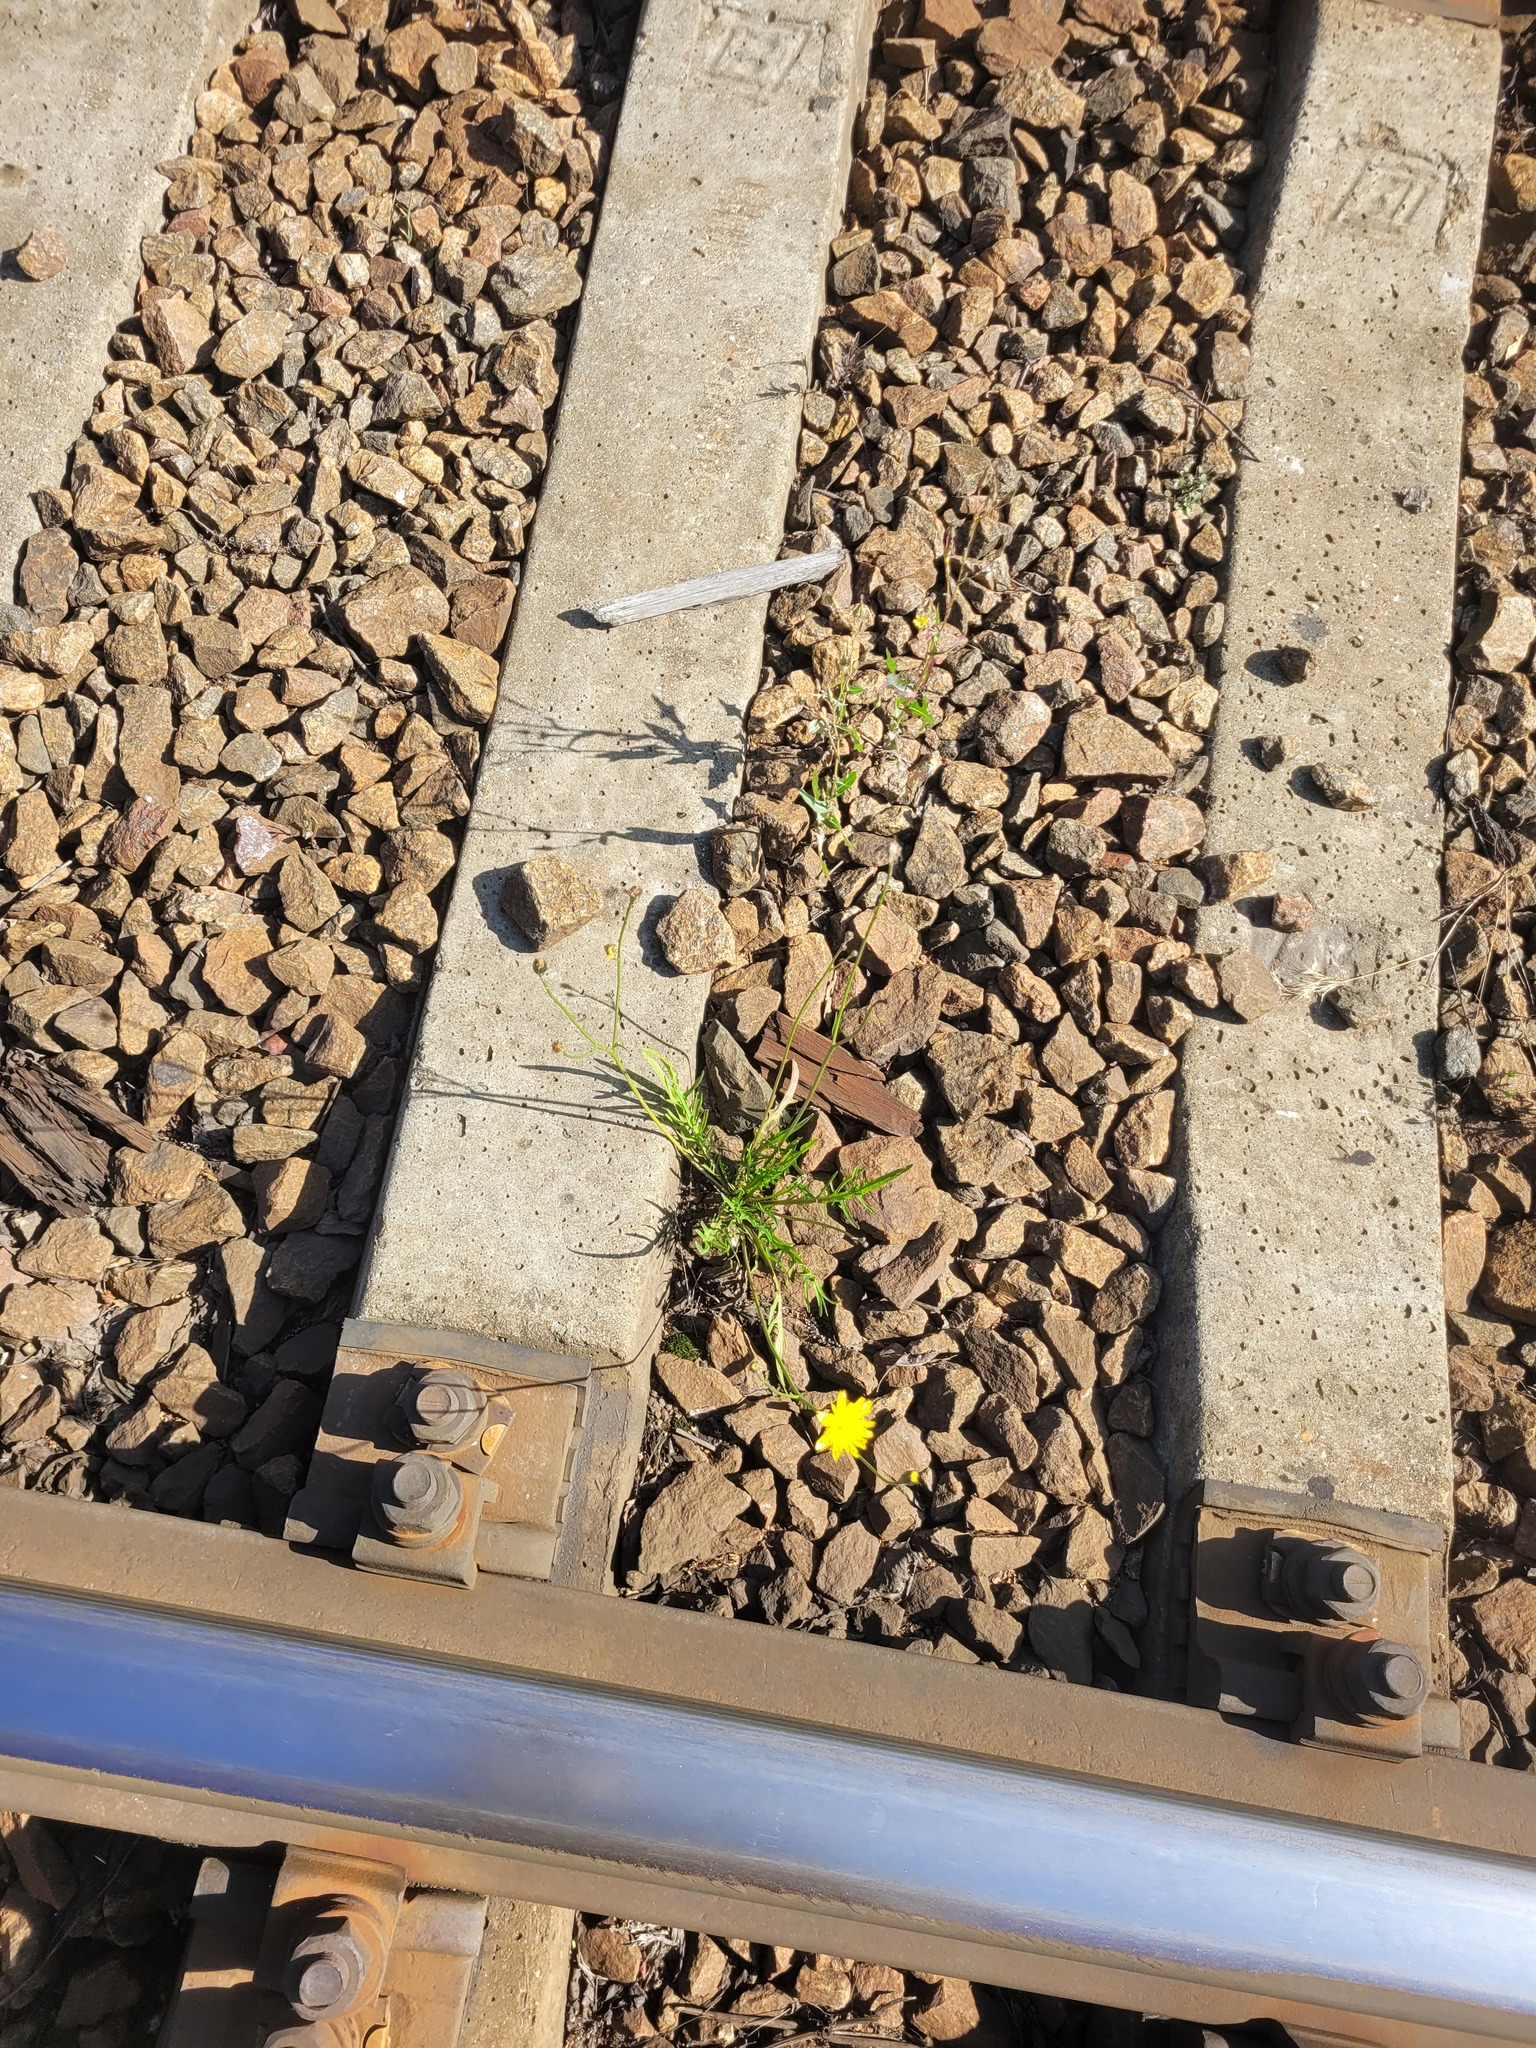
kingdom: Plantae
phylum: Tracheophyta
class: Magnoliopsida
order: Asterales
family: Asteraceae
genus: Scorzoneroides
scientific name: Scorzoneroides autumnalis
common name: Autumn hawkbit
